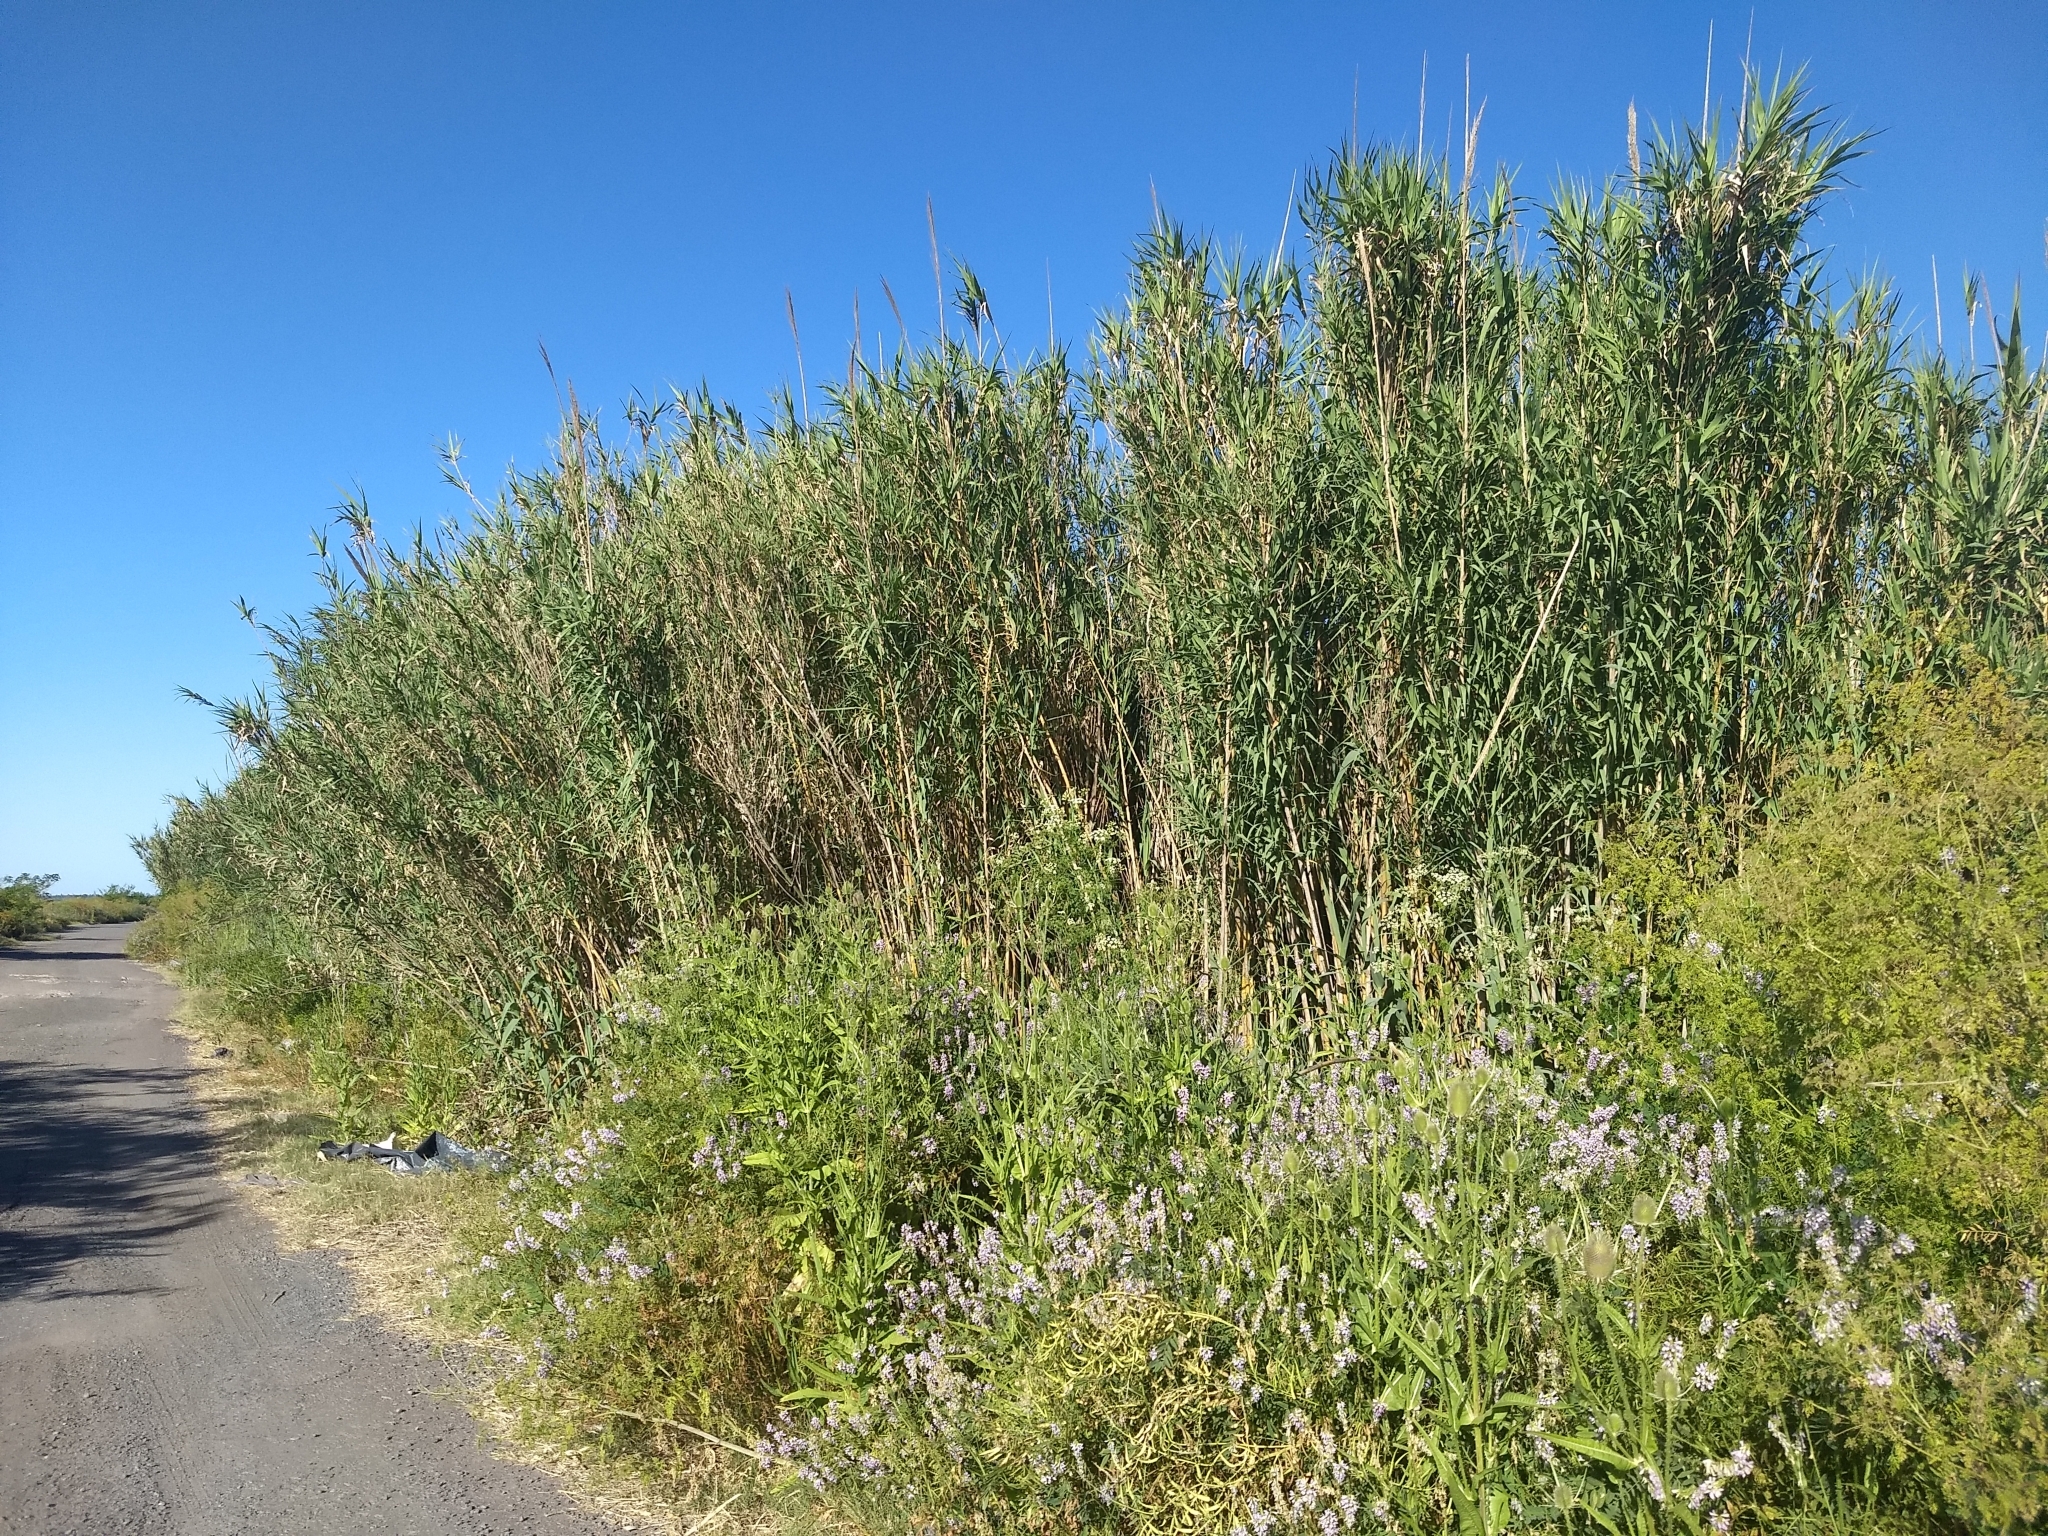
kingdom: Plantae
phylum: Tracheophyta
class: Liliopsida
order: Poales
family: Poaceae
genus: Arundo
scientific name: Arundo donax
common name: Giant reed
